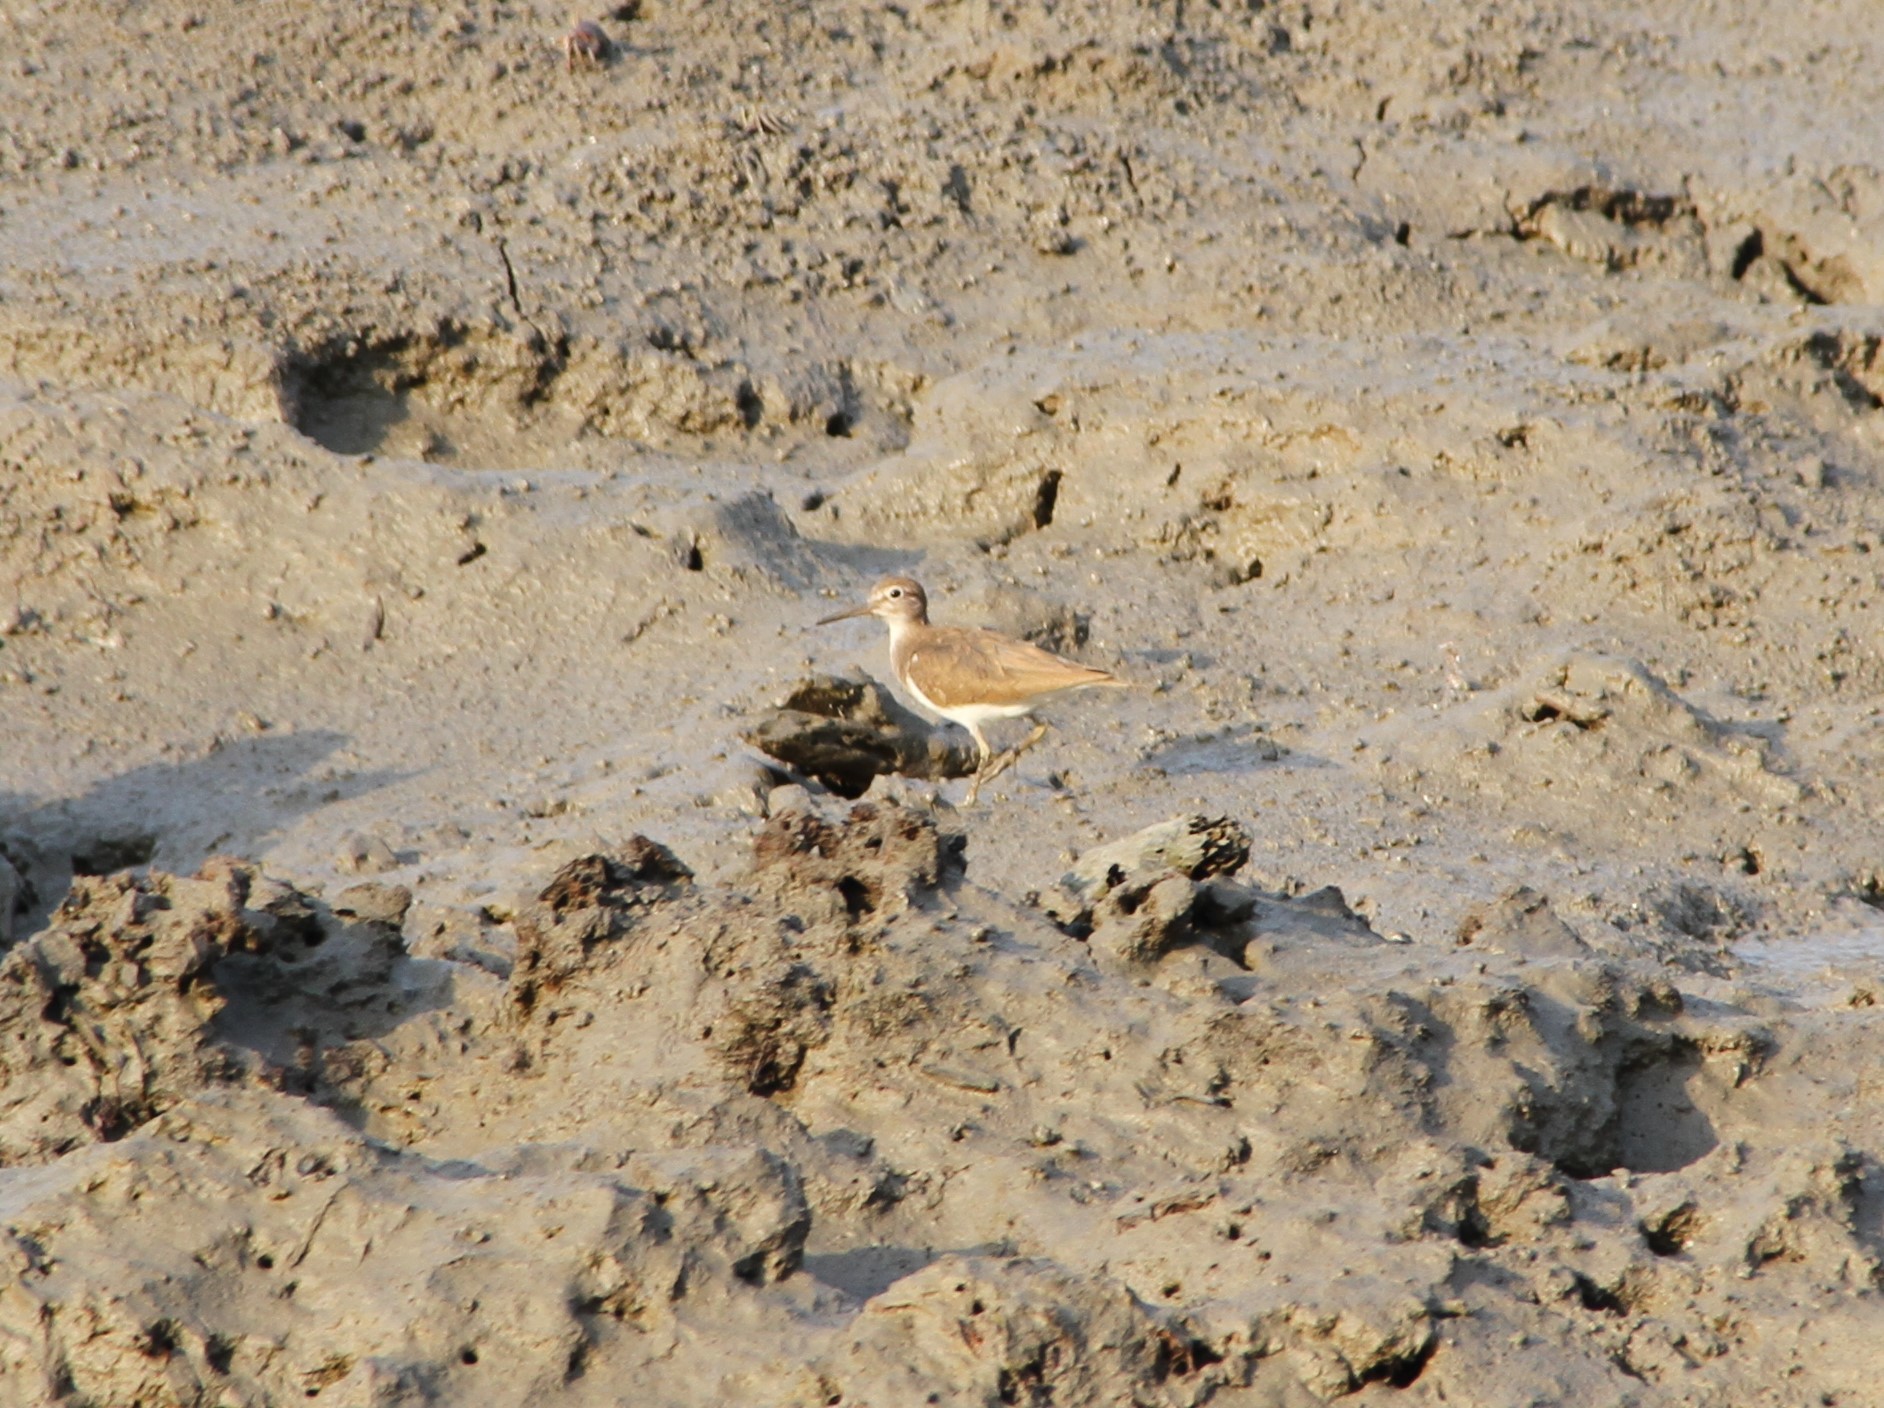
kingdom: Animalia
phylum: Chordata
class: Aves
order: Charadriiformes
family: Scolopacidae
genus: Actitis
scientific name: Actitis hypoleucos
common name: Common sandpiper
